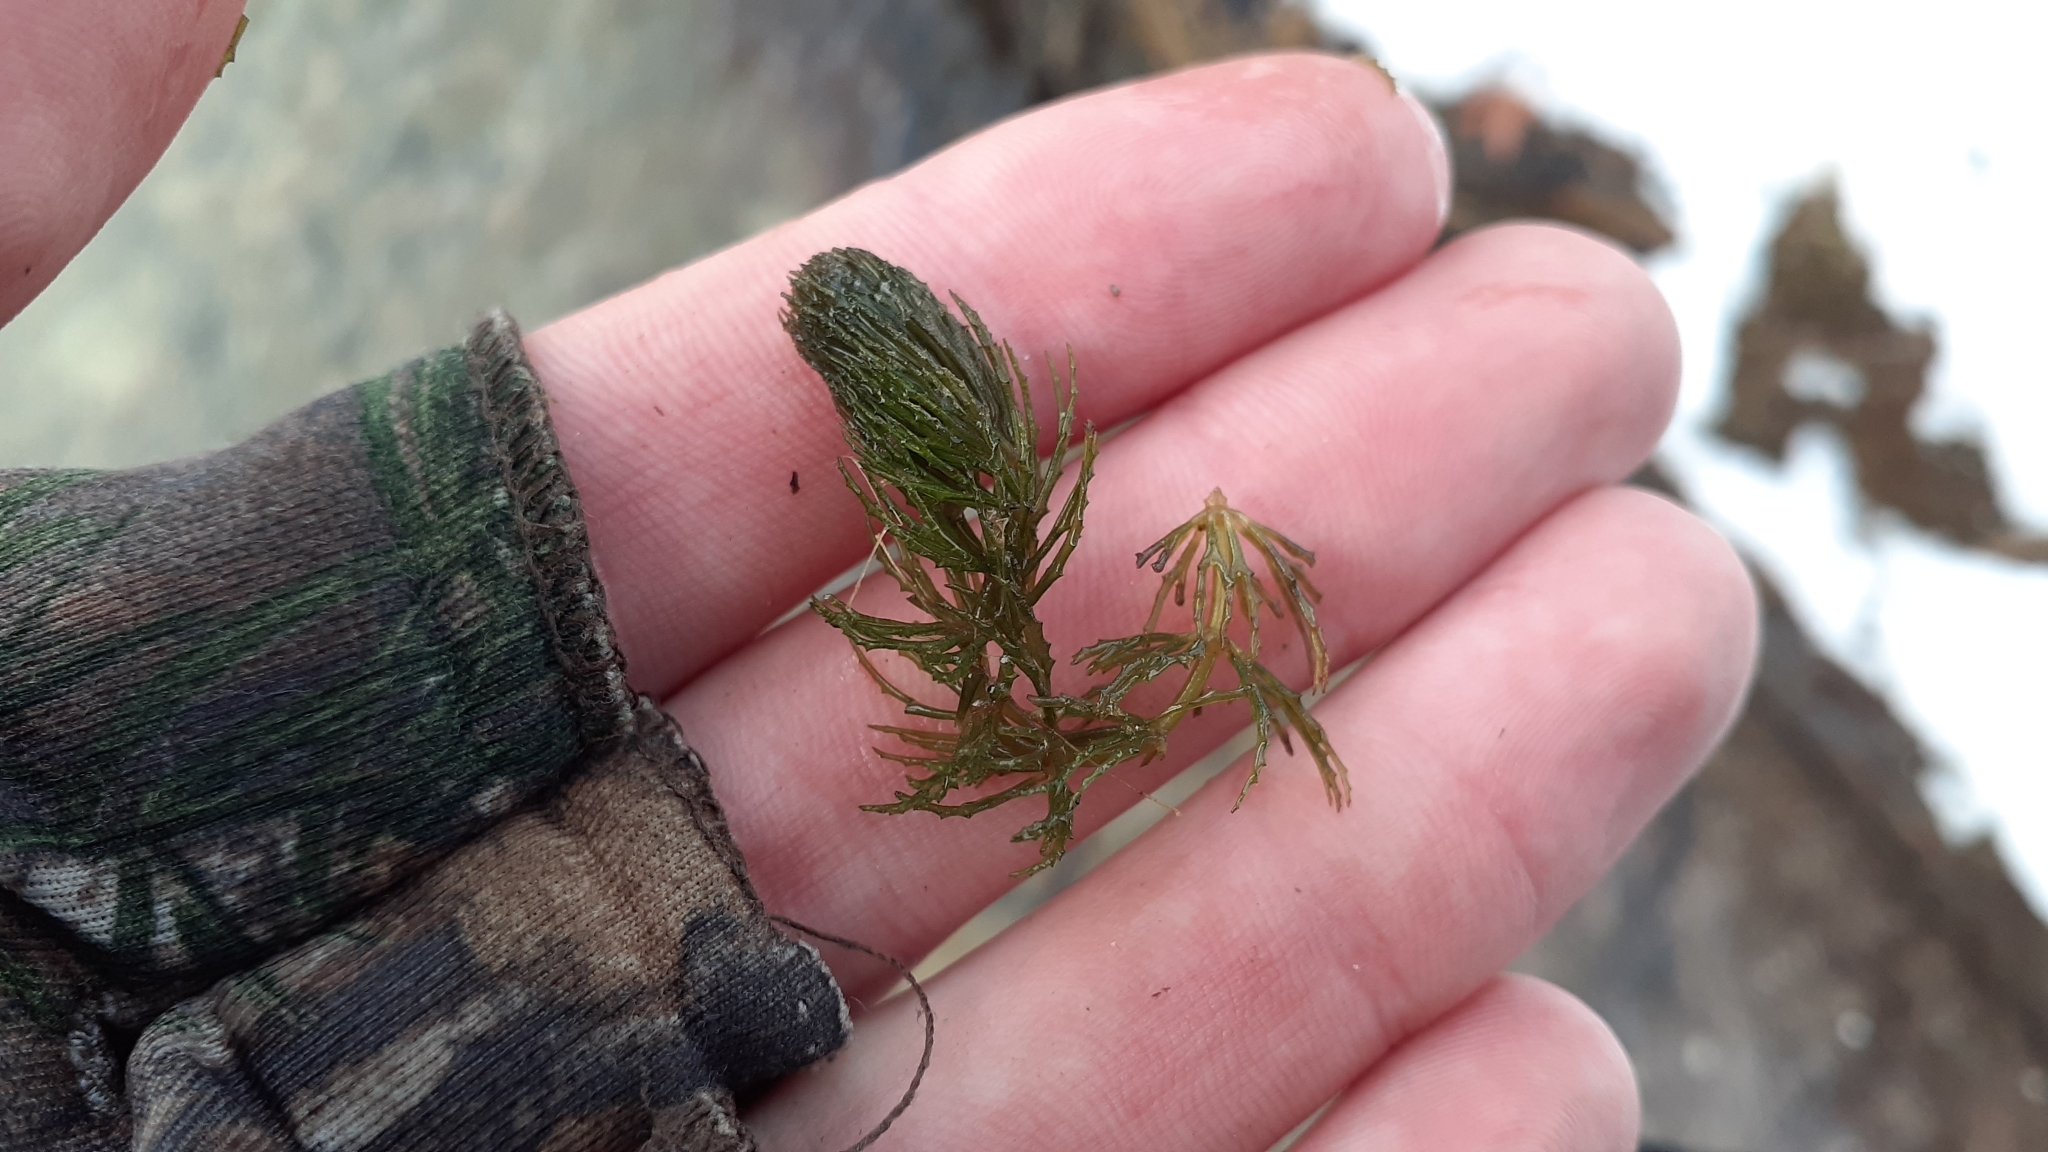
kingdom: Plantae
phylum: Tracheophyta
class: Magnoliopsida
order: Ceratophyllales
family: Ceratophyllaceae
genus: Ceratophyllum
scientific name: Ceratophyllum demersum
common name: Rigid hornwort
